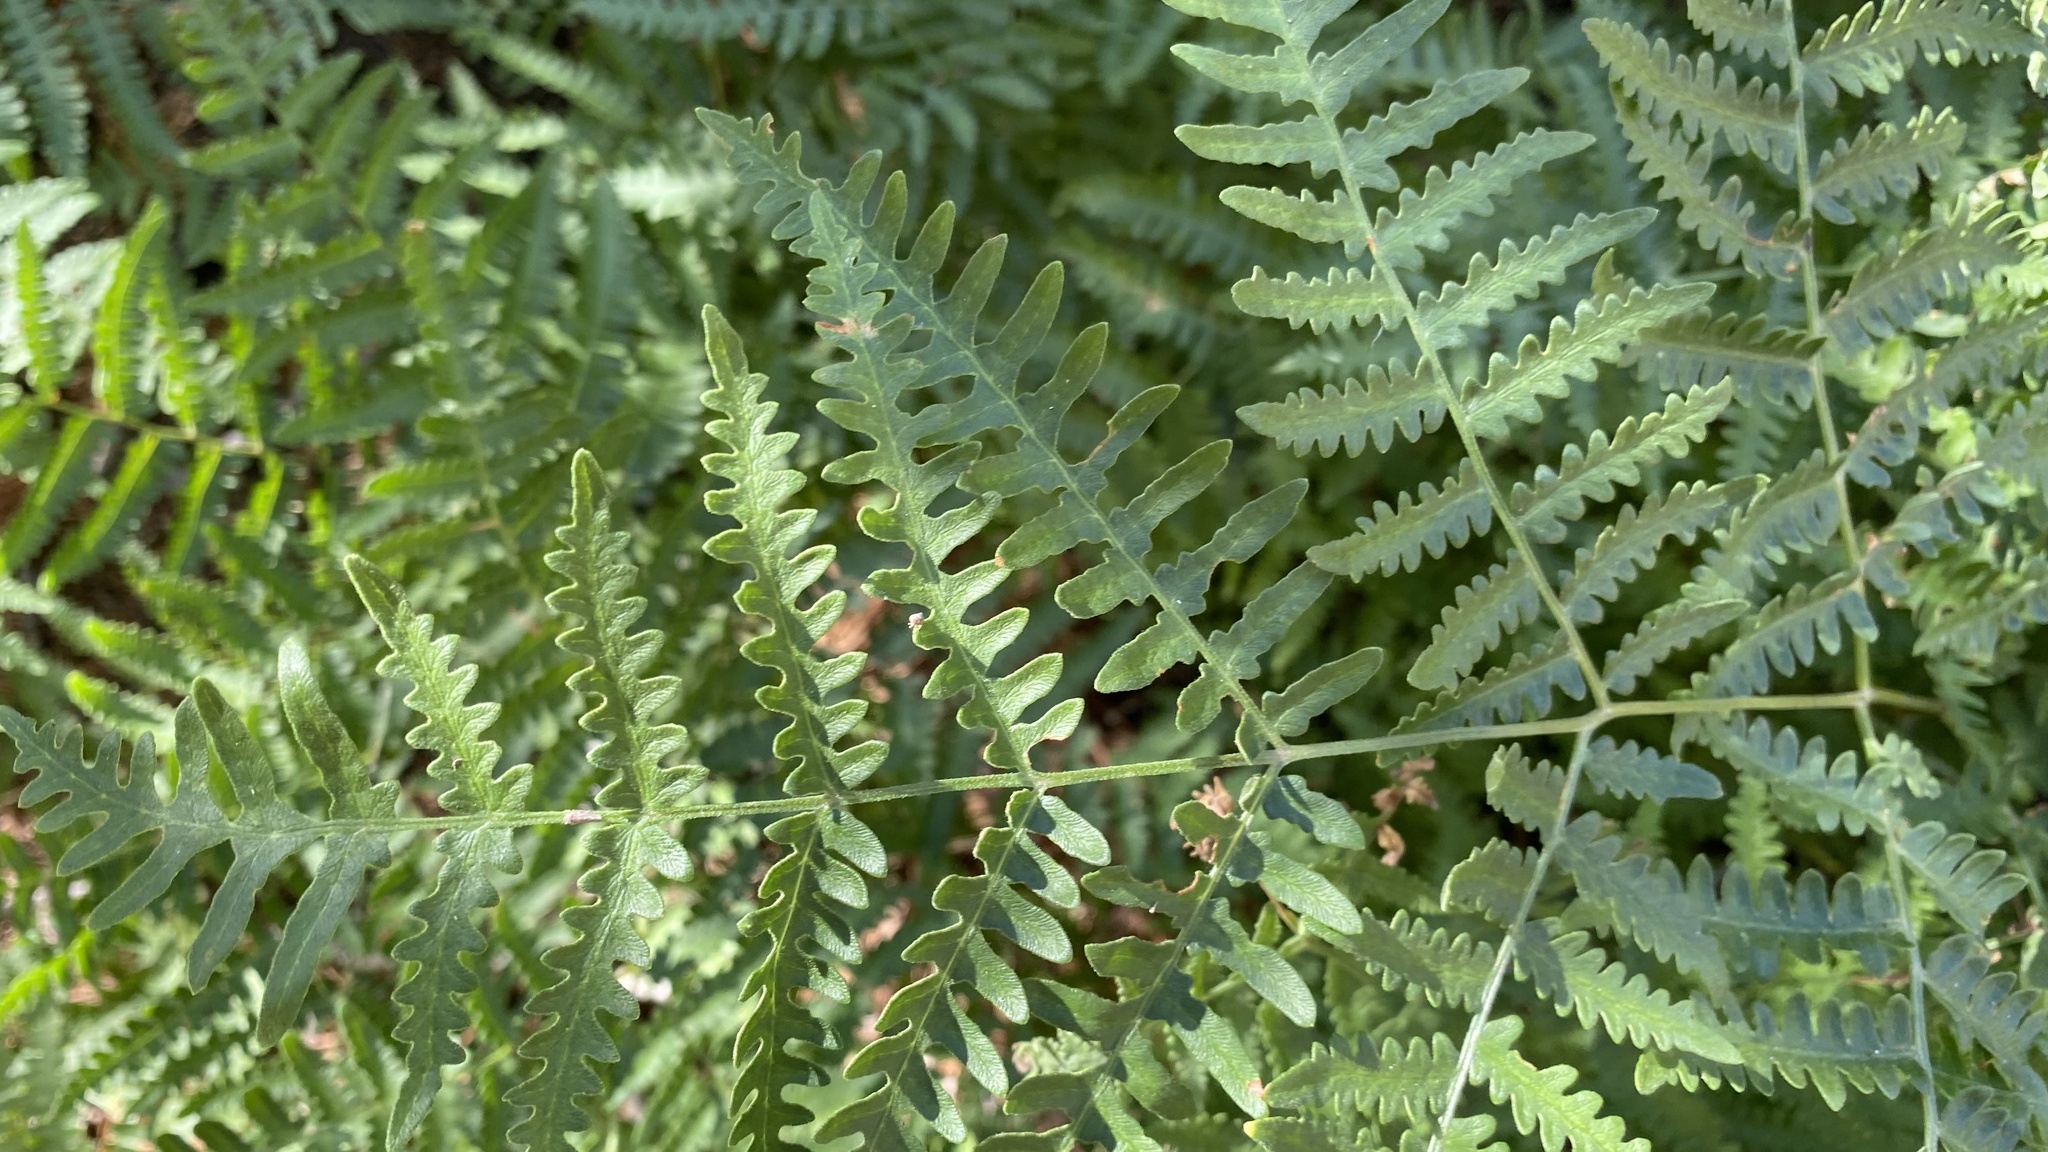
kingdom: Plantae
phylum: Tracheophyta
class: Polypodiopsida
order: Polypodiales
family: Dennstaedtiaceae
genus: Pteridium
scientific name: Pteridium aquilinum
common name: Bracken
